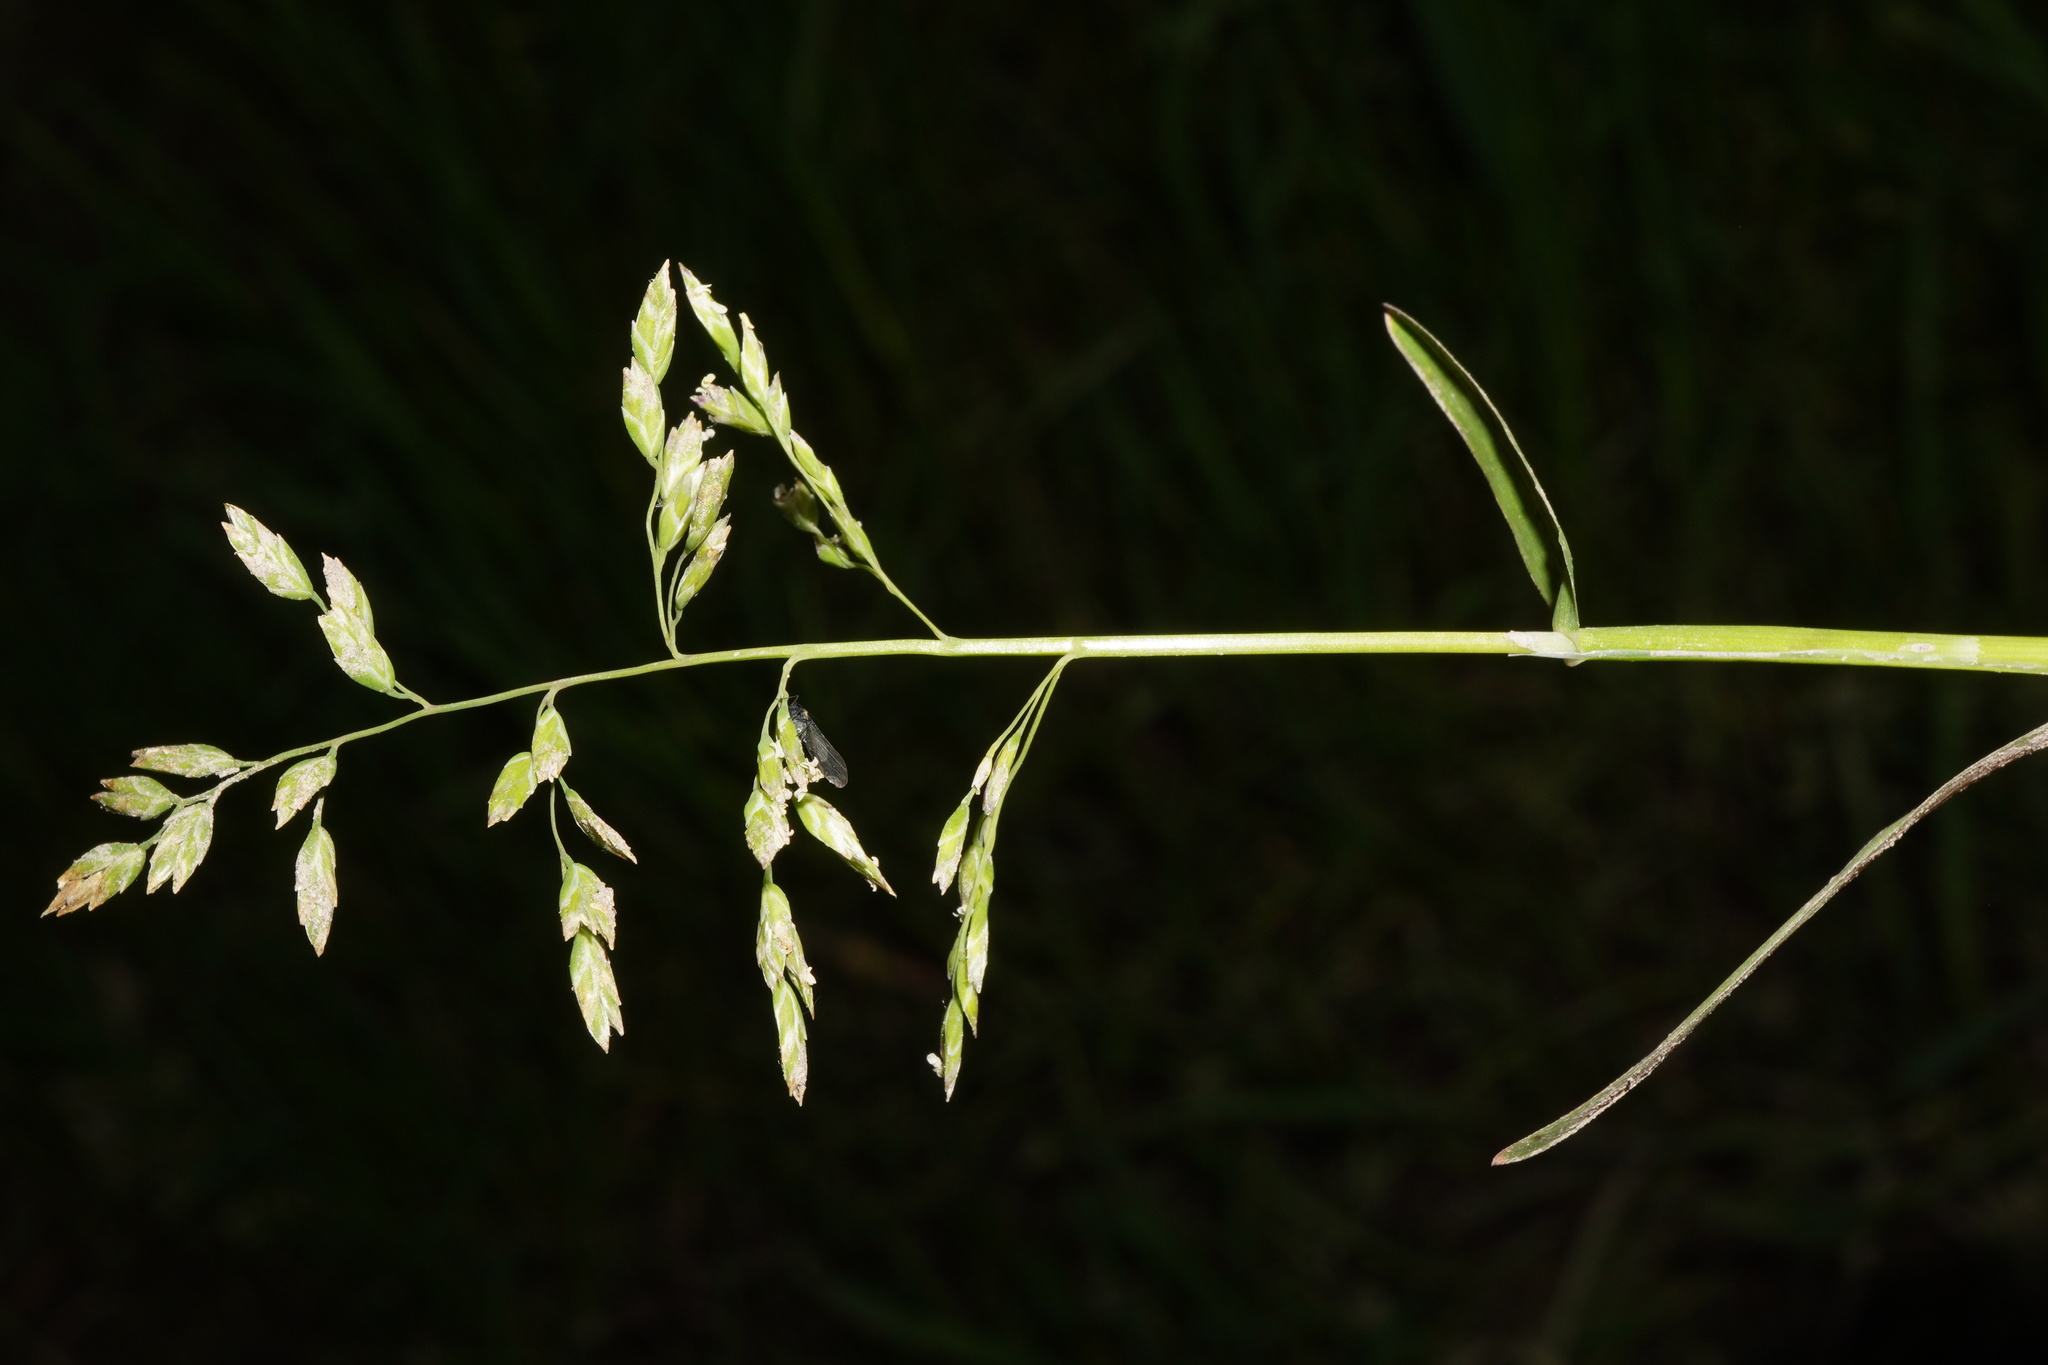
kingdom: Plantae
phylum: Tracheophyta
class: Liliopsida
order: Poales
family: Poaceae
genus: Poa
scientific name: Poa annua
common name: Annual bluegrass
